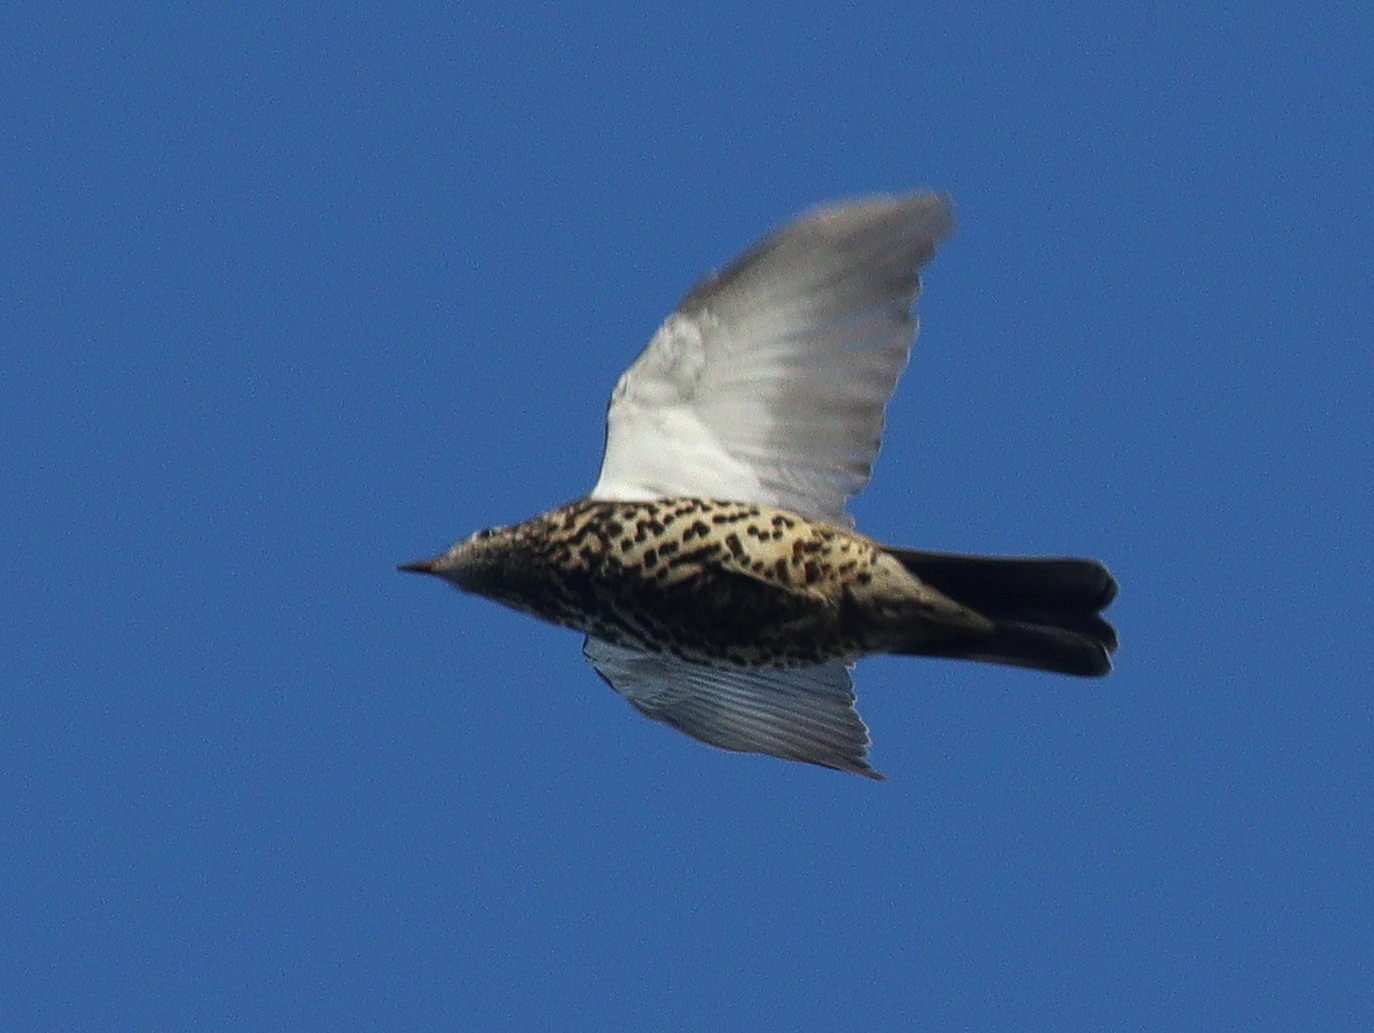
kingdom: Animalia
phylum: Chordata
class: Aves
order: Passeriformes
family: Turdidae
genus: Turdus
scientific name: Turdus viscivorus
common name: Mistle thrush
